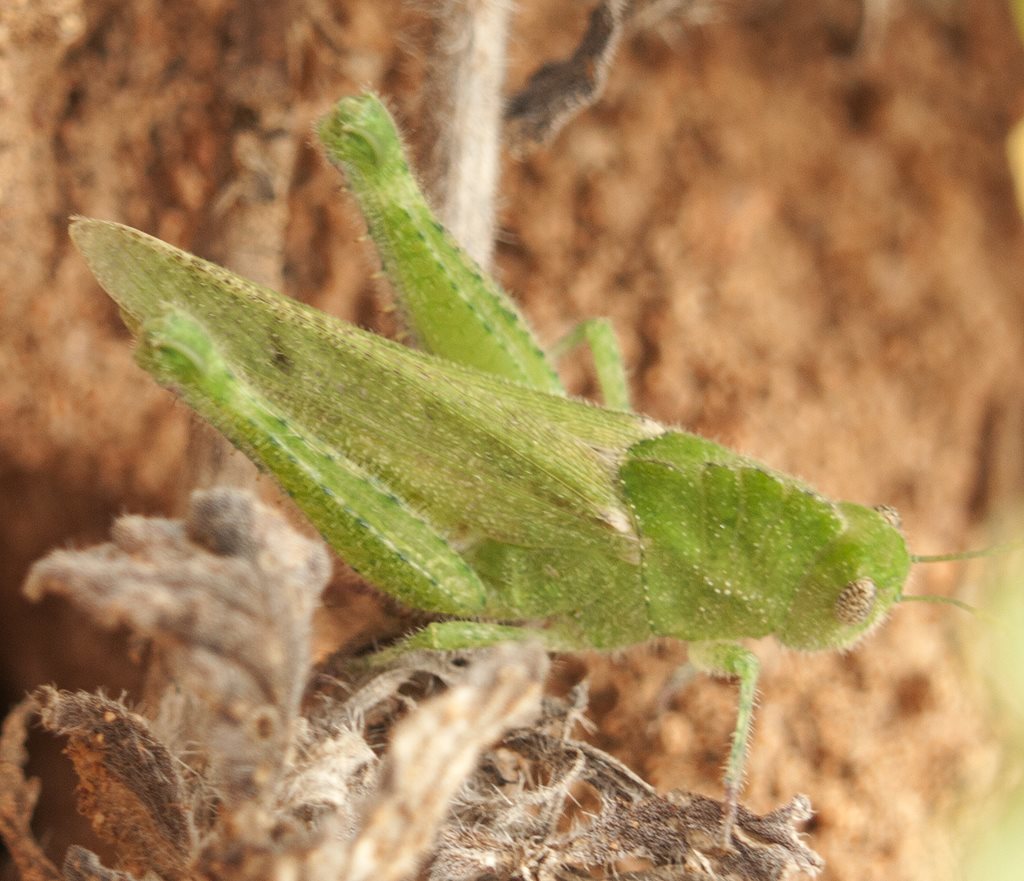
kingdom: Animalia
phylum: Arthropoda
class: Insecta
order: Orthoptera
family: Acrididae
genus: Ecphantus
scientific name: Ecphantus quadrilobus
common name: Crested tooth grinder
